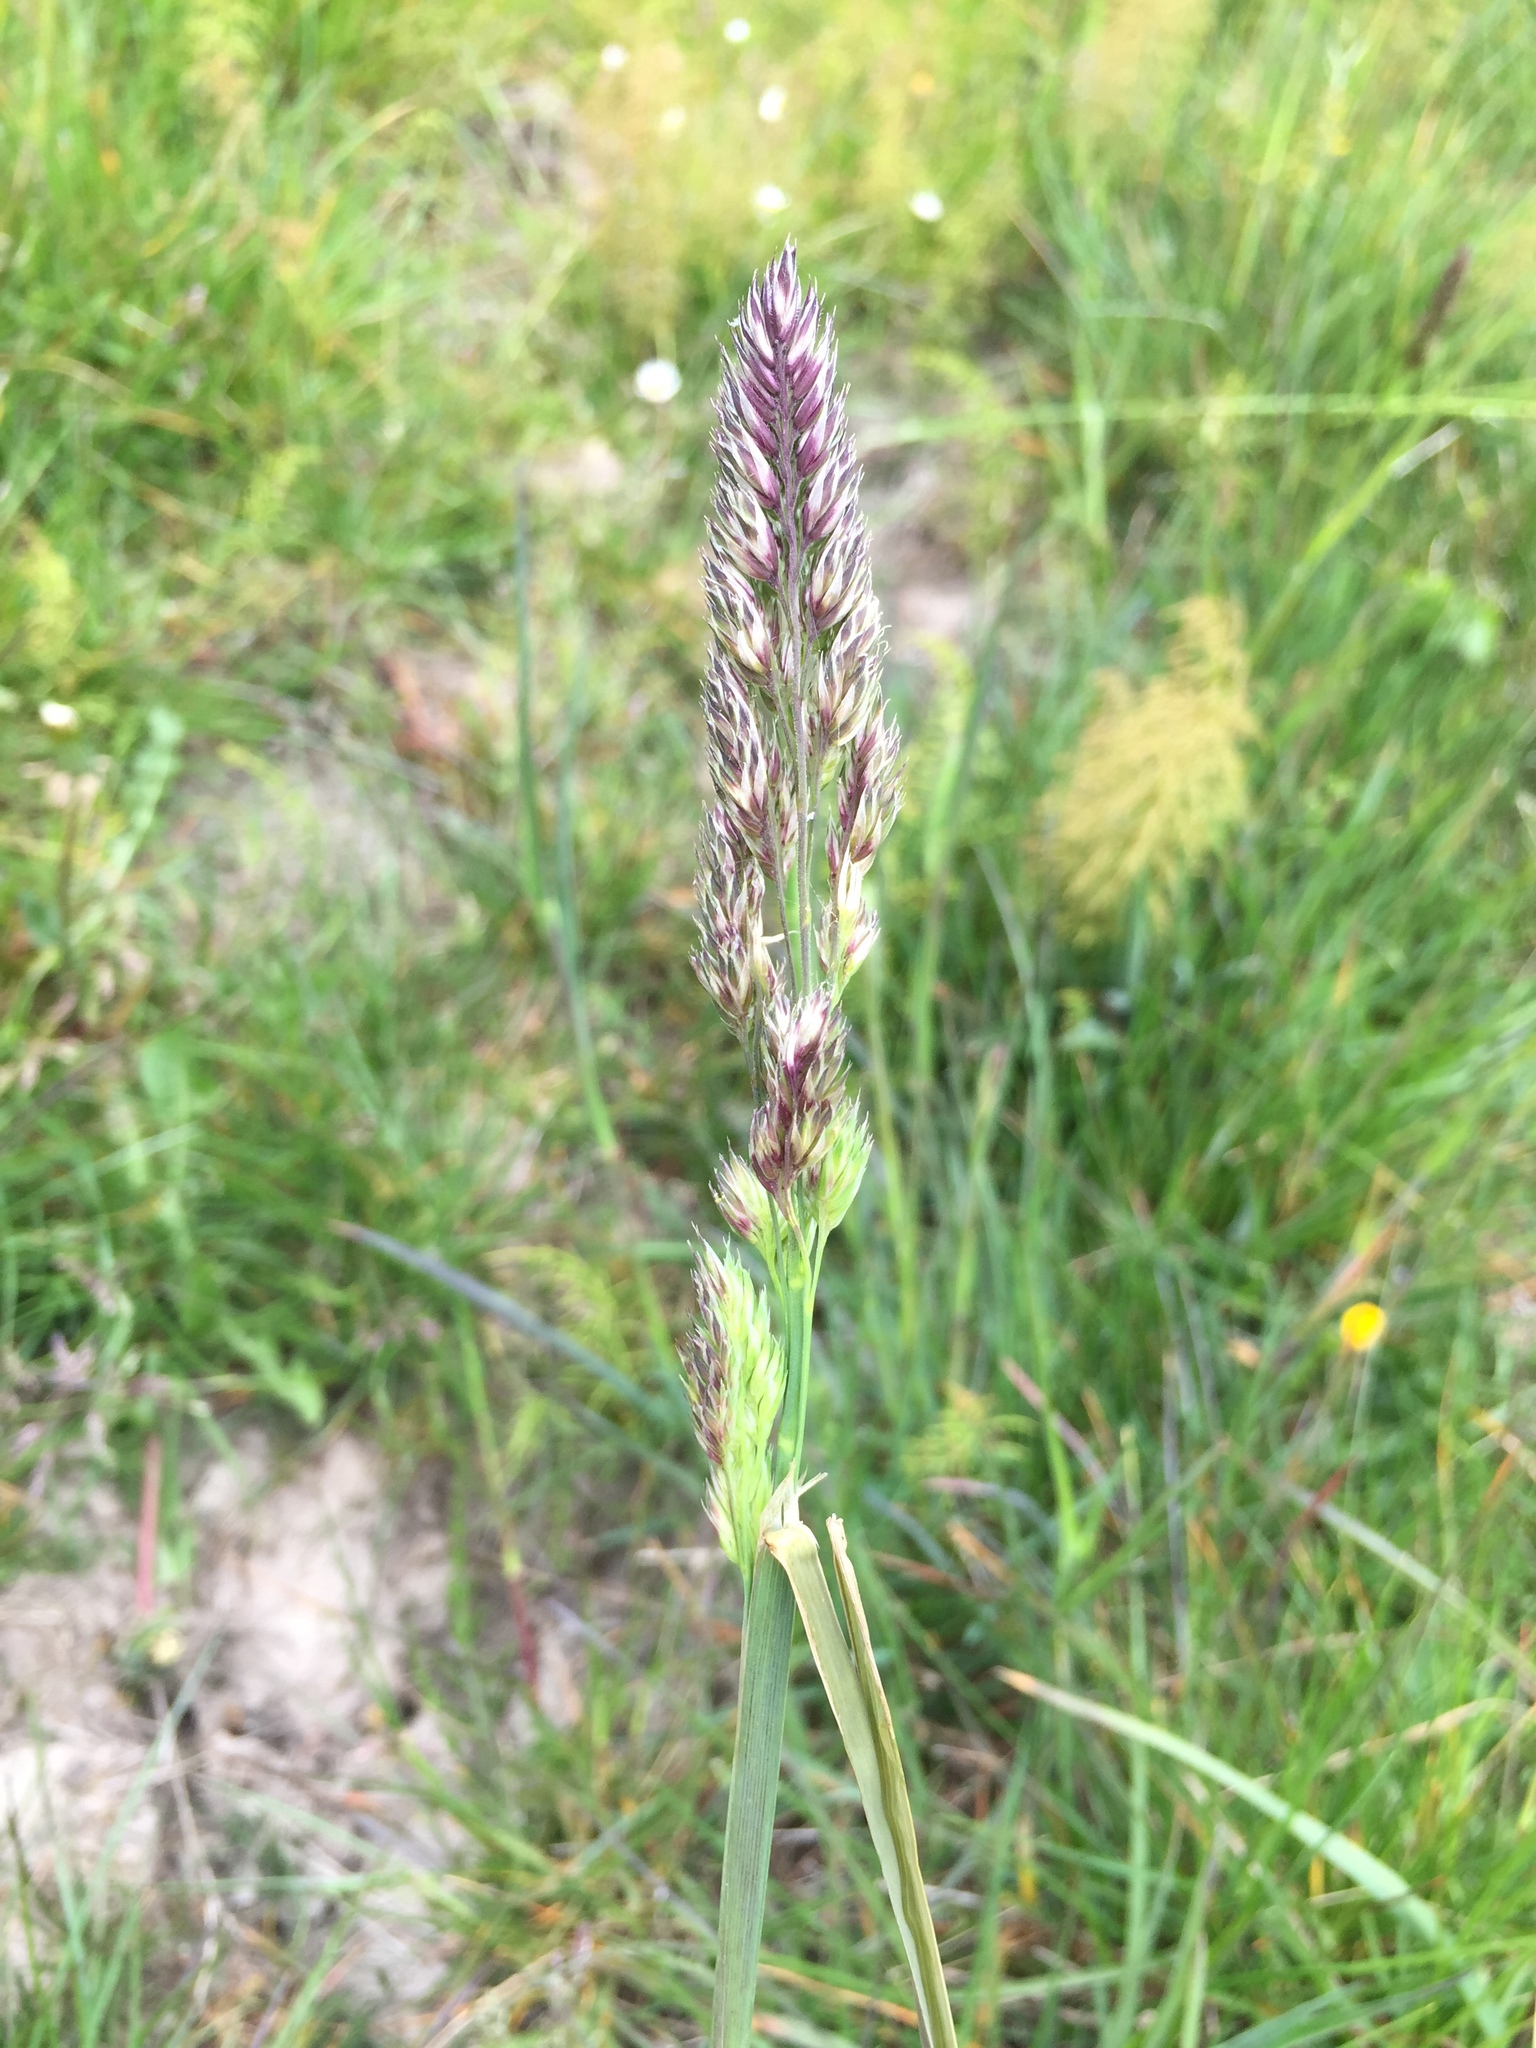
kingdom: Plantae
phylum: Tracheophyta
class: Liliopsida
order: Poales
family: Poaceae
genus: Dactylis
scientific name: Dactylis glomerata
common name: Orchardgrass
